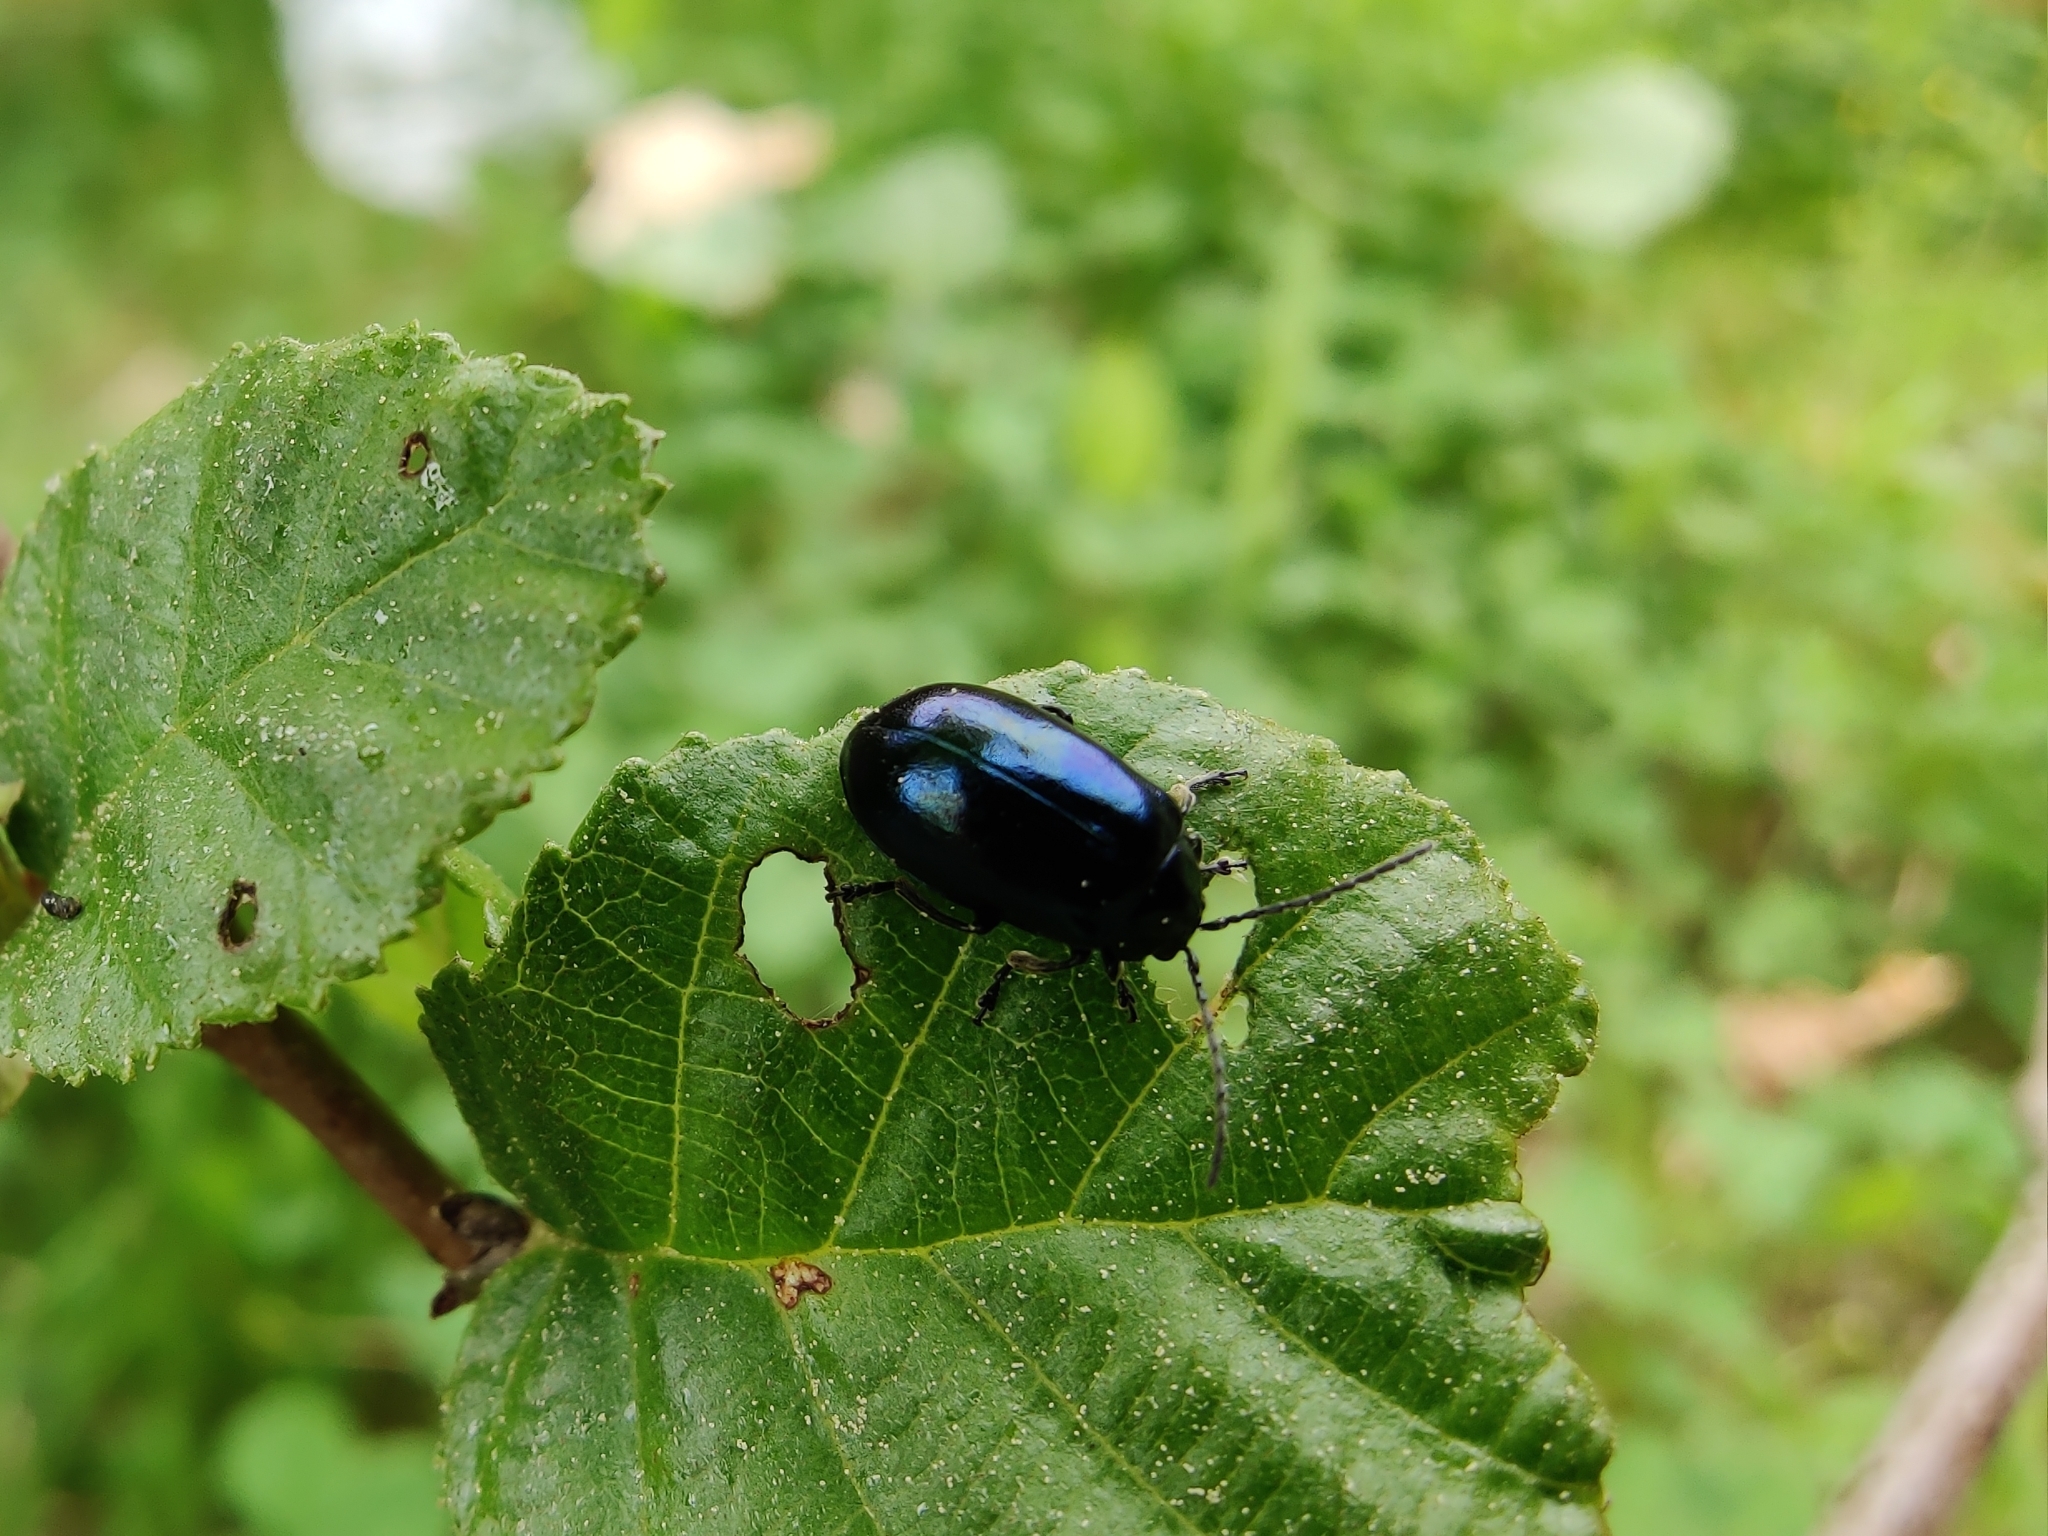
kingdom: Animalia
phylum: Arthropoda
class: Insecta
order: Coleoptera
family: Chrysomelidae
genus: Agelastica
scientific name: Agelastica alni
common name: Alder leaf beetle
